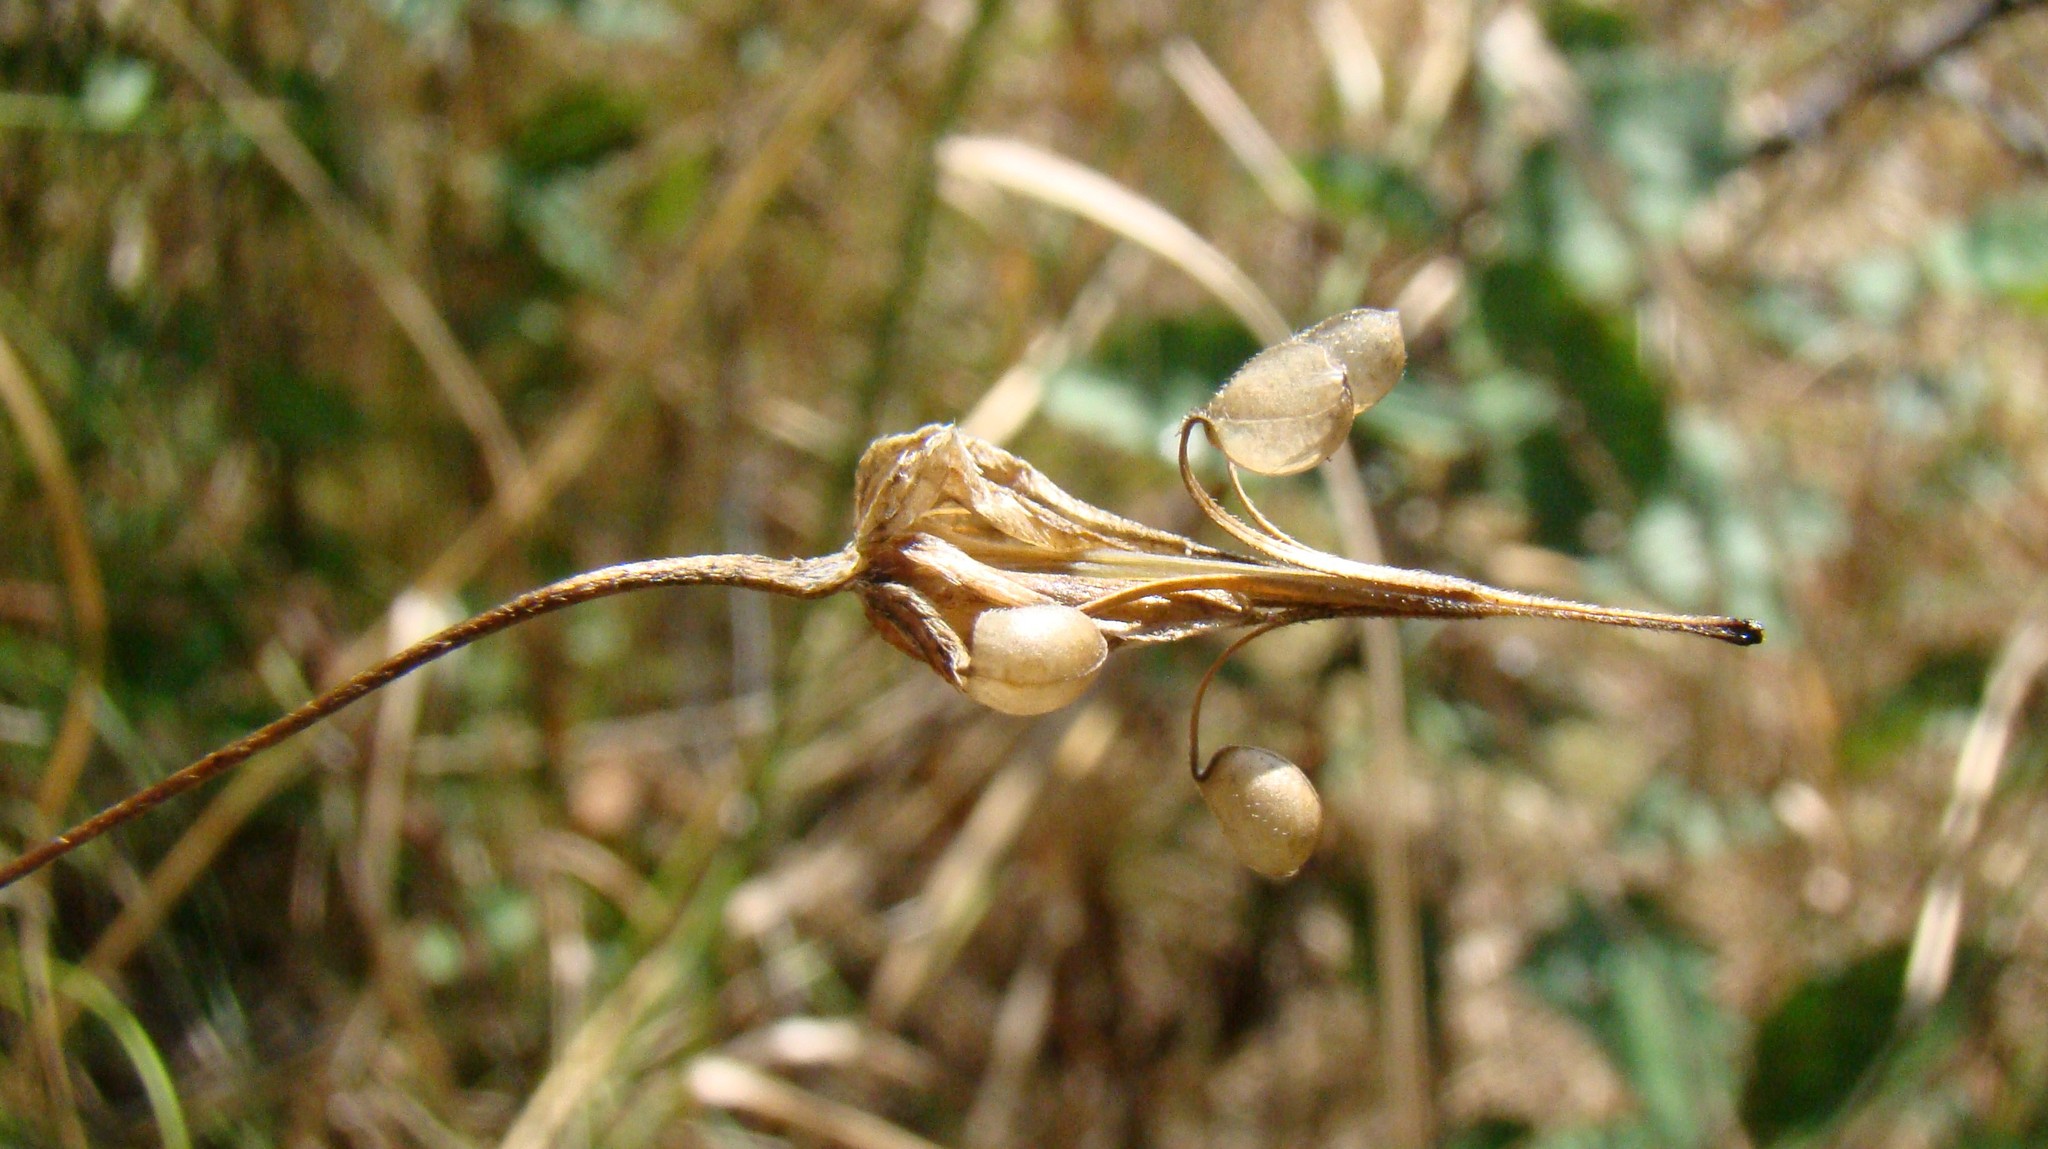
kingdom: Plantae
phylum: Tracheophyta
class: Magnoliopsida
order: Geraniales
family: Geraniaceae
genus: Geranium
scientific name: Geranium columbinum
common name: Long-stalked crane's-bill
